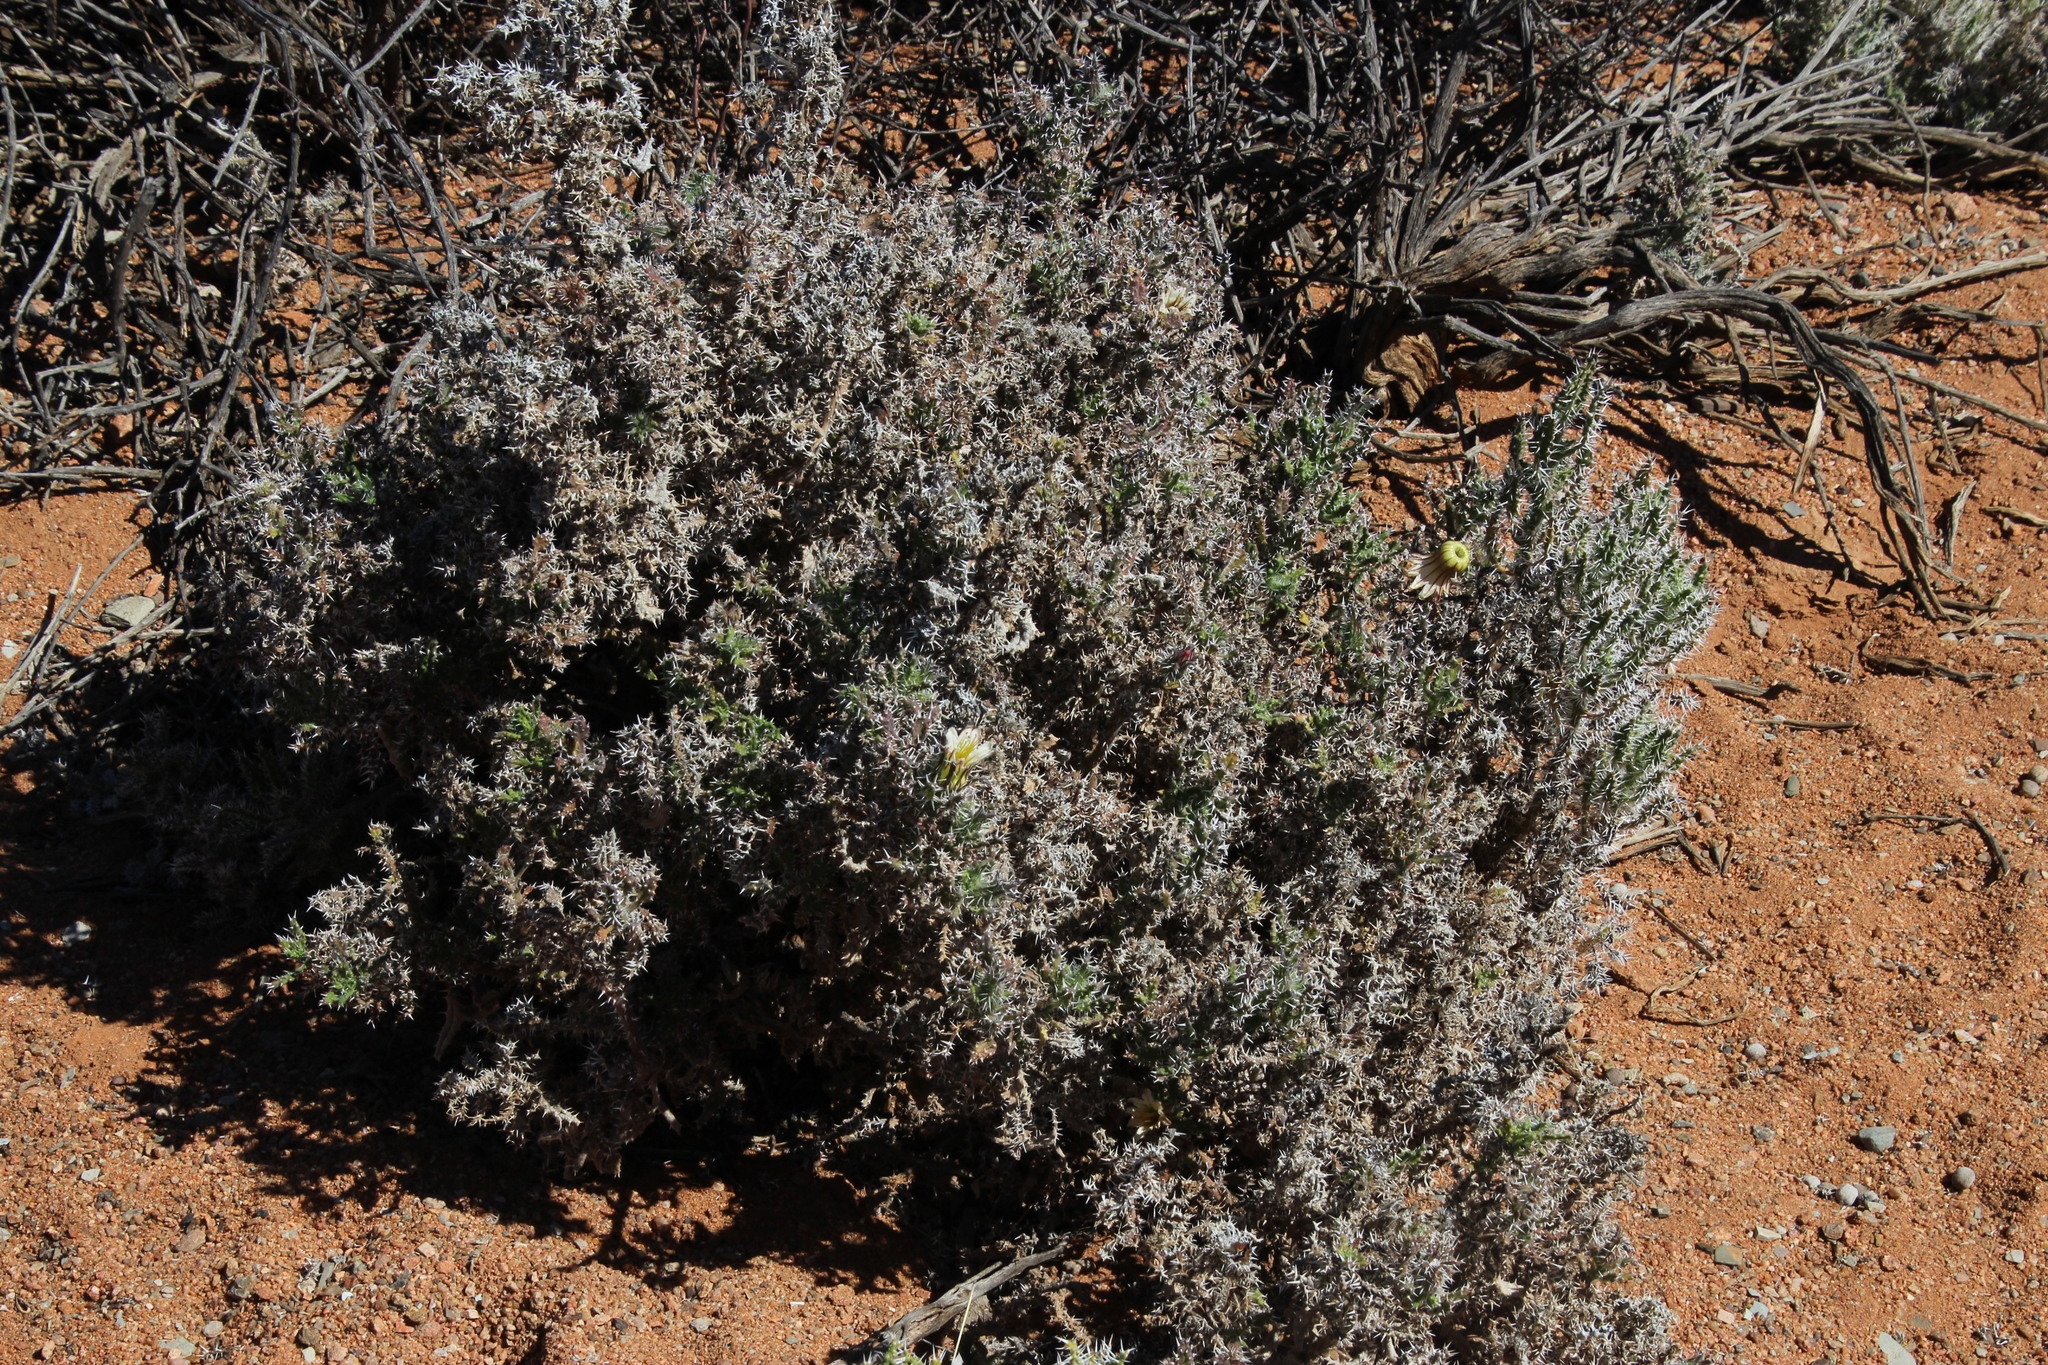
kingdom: Plantae
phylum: Tracheophyta
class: Magnoliopsida
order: Boraginales
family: Boraginaceae
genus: Codon
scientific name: Codon royenii
